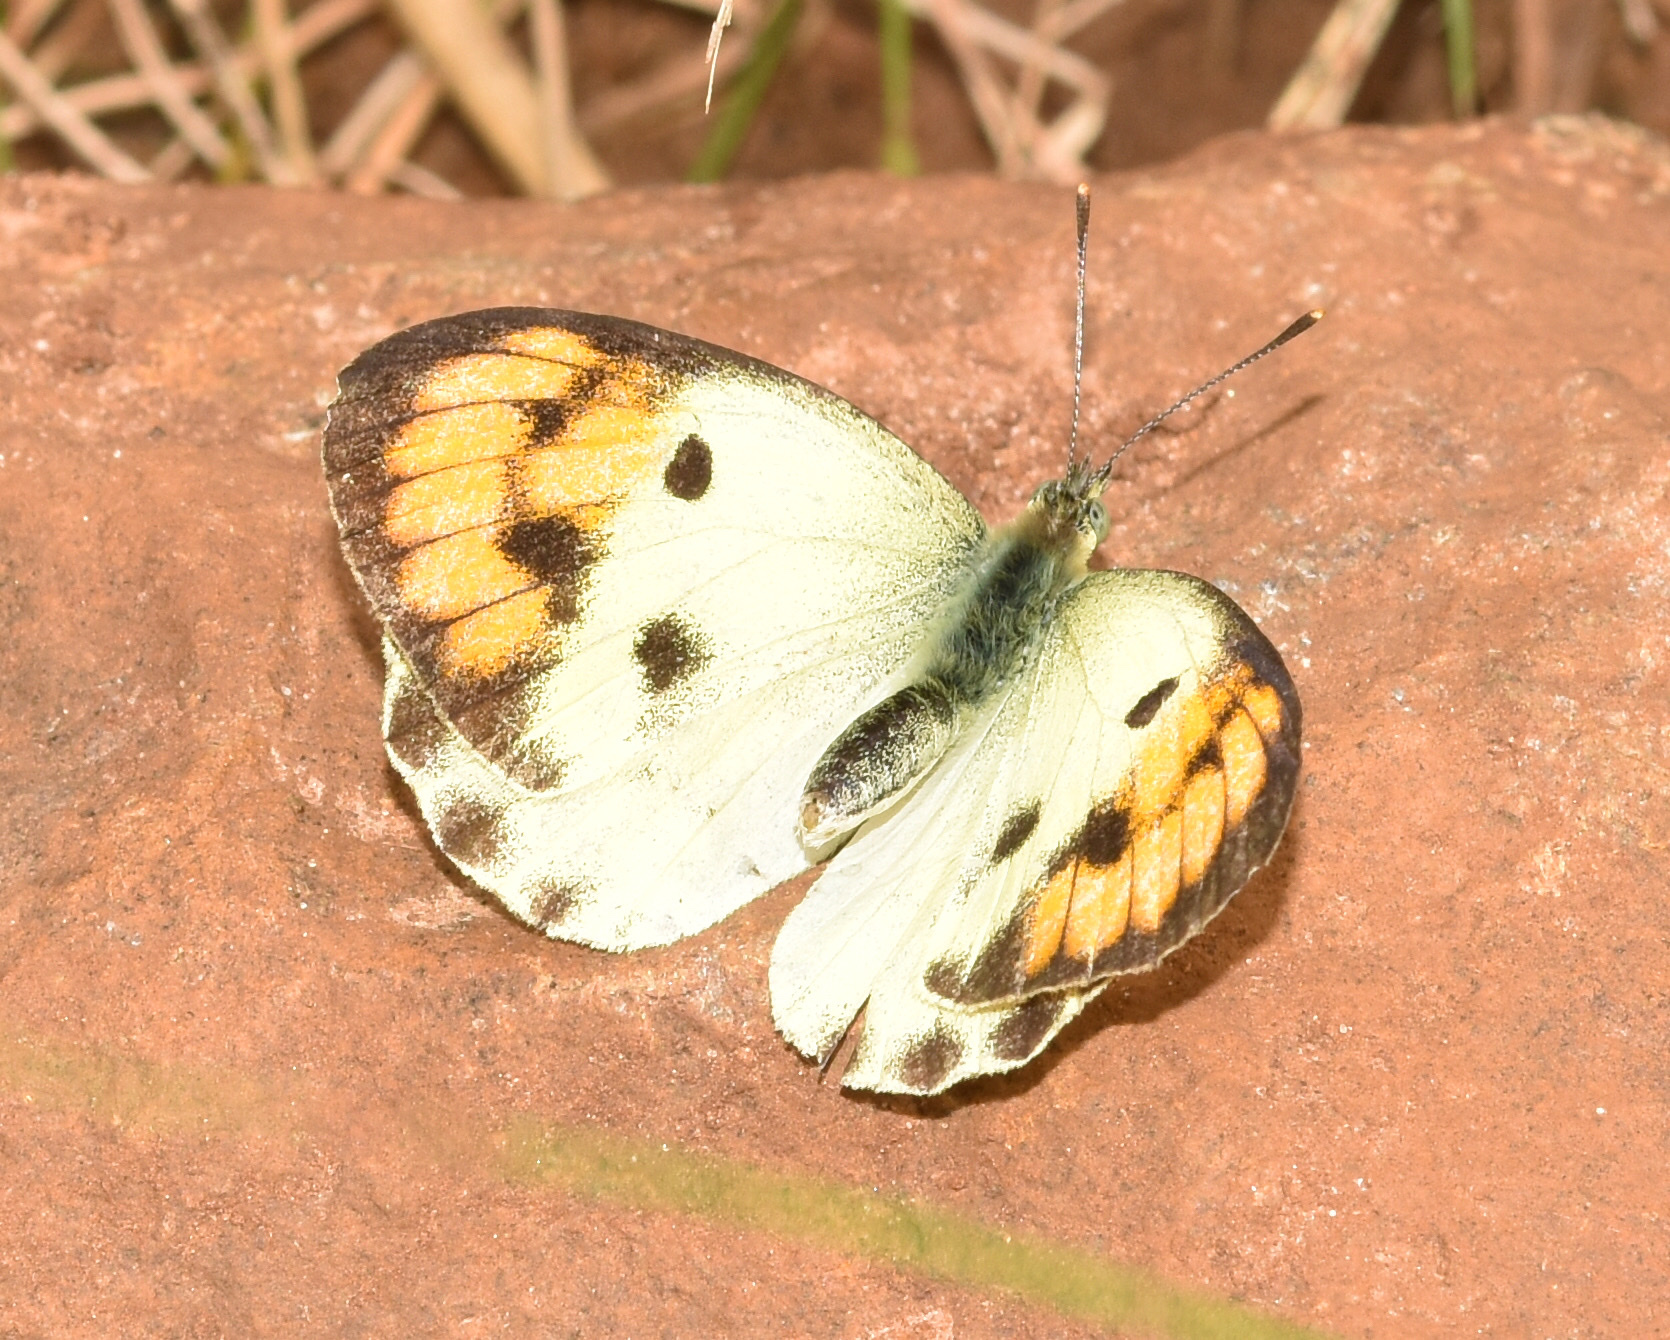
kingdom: Animalia
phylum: Arthropoda
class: Insecta
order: Lepidoptera
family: Pieridae
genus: Colotis
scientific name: Colotis auxo
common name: Sulphur orange tip
